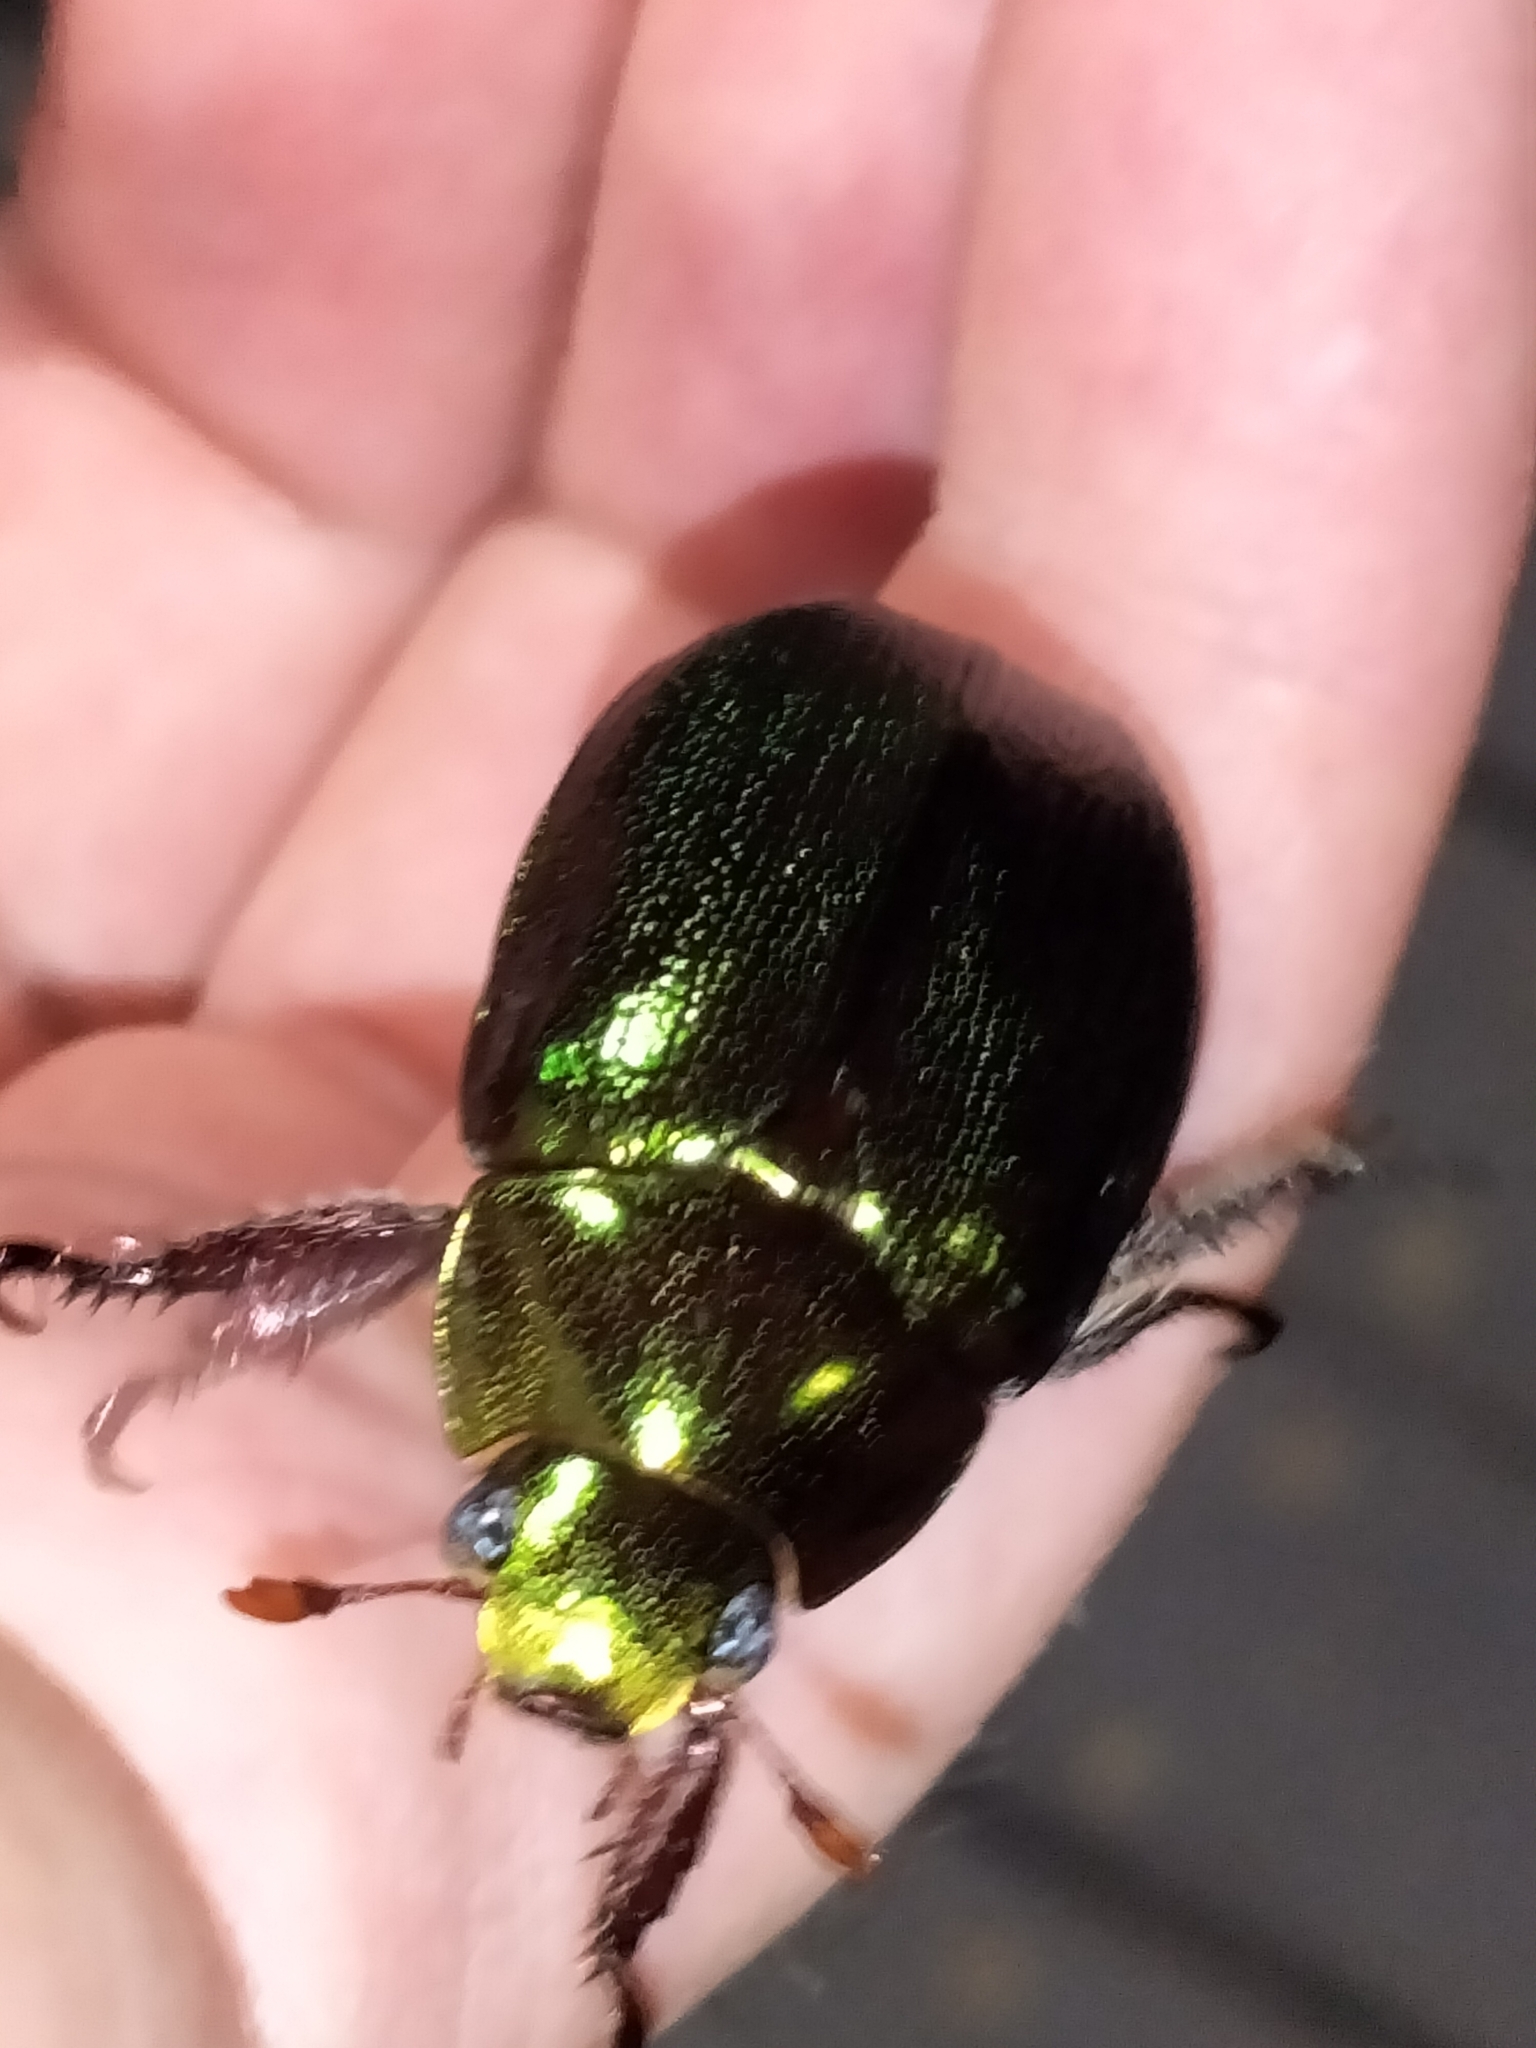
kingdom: Animalia
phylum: Arthropoda
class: Insecta
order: Coleoptera
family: Scarabaeidae
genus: Anoplognathus
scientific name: Anoplognathus aeneus
